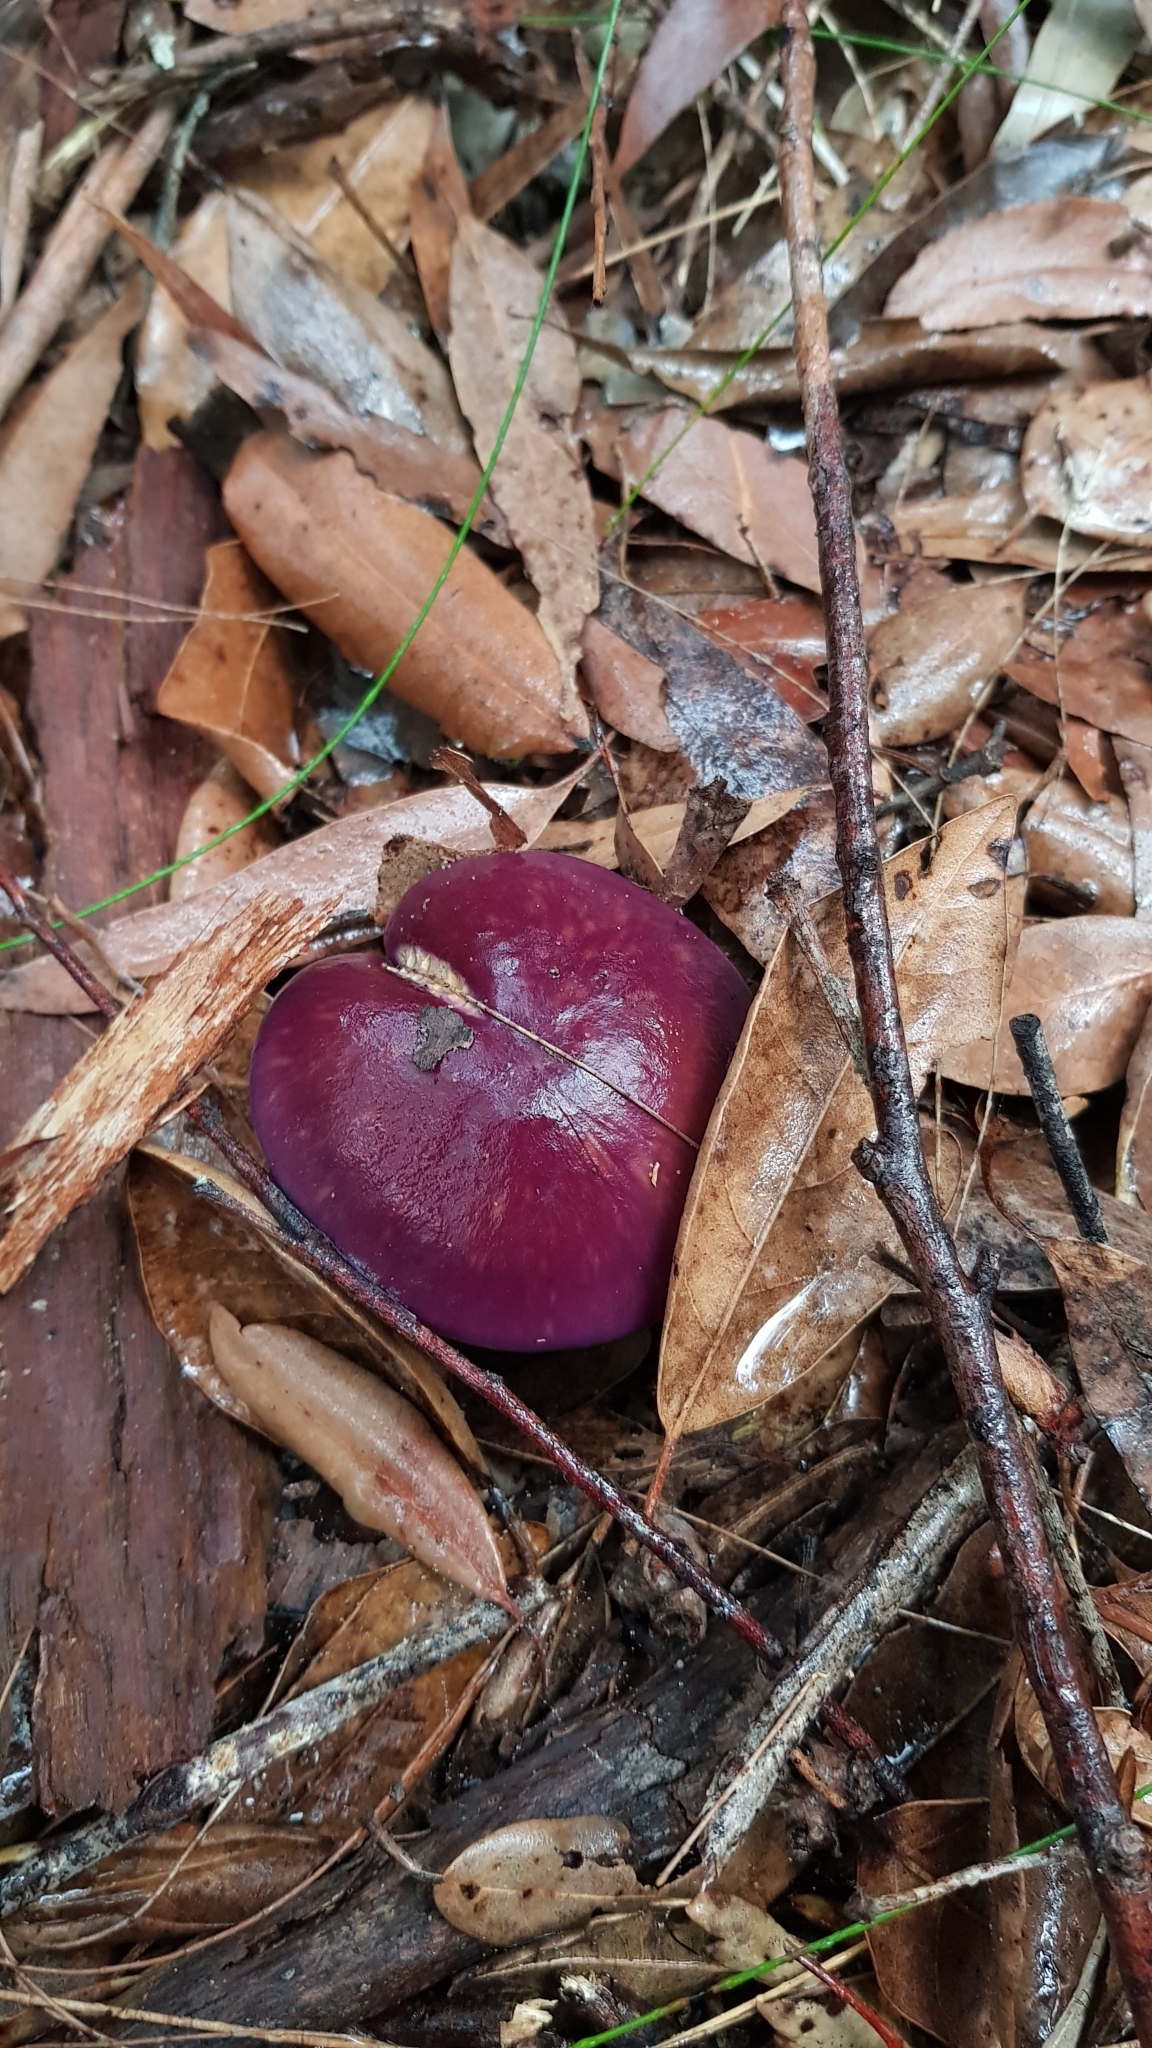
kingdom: Fungi
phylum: Basidiomycota
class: Agaricomycetes
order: Agaricales
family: Cortinariaceae
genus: Cortinarius
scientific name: Cortinarius archeri
